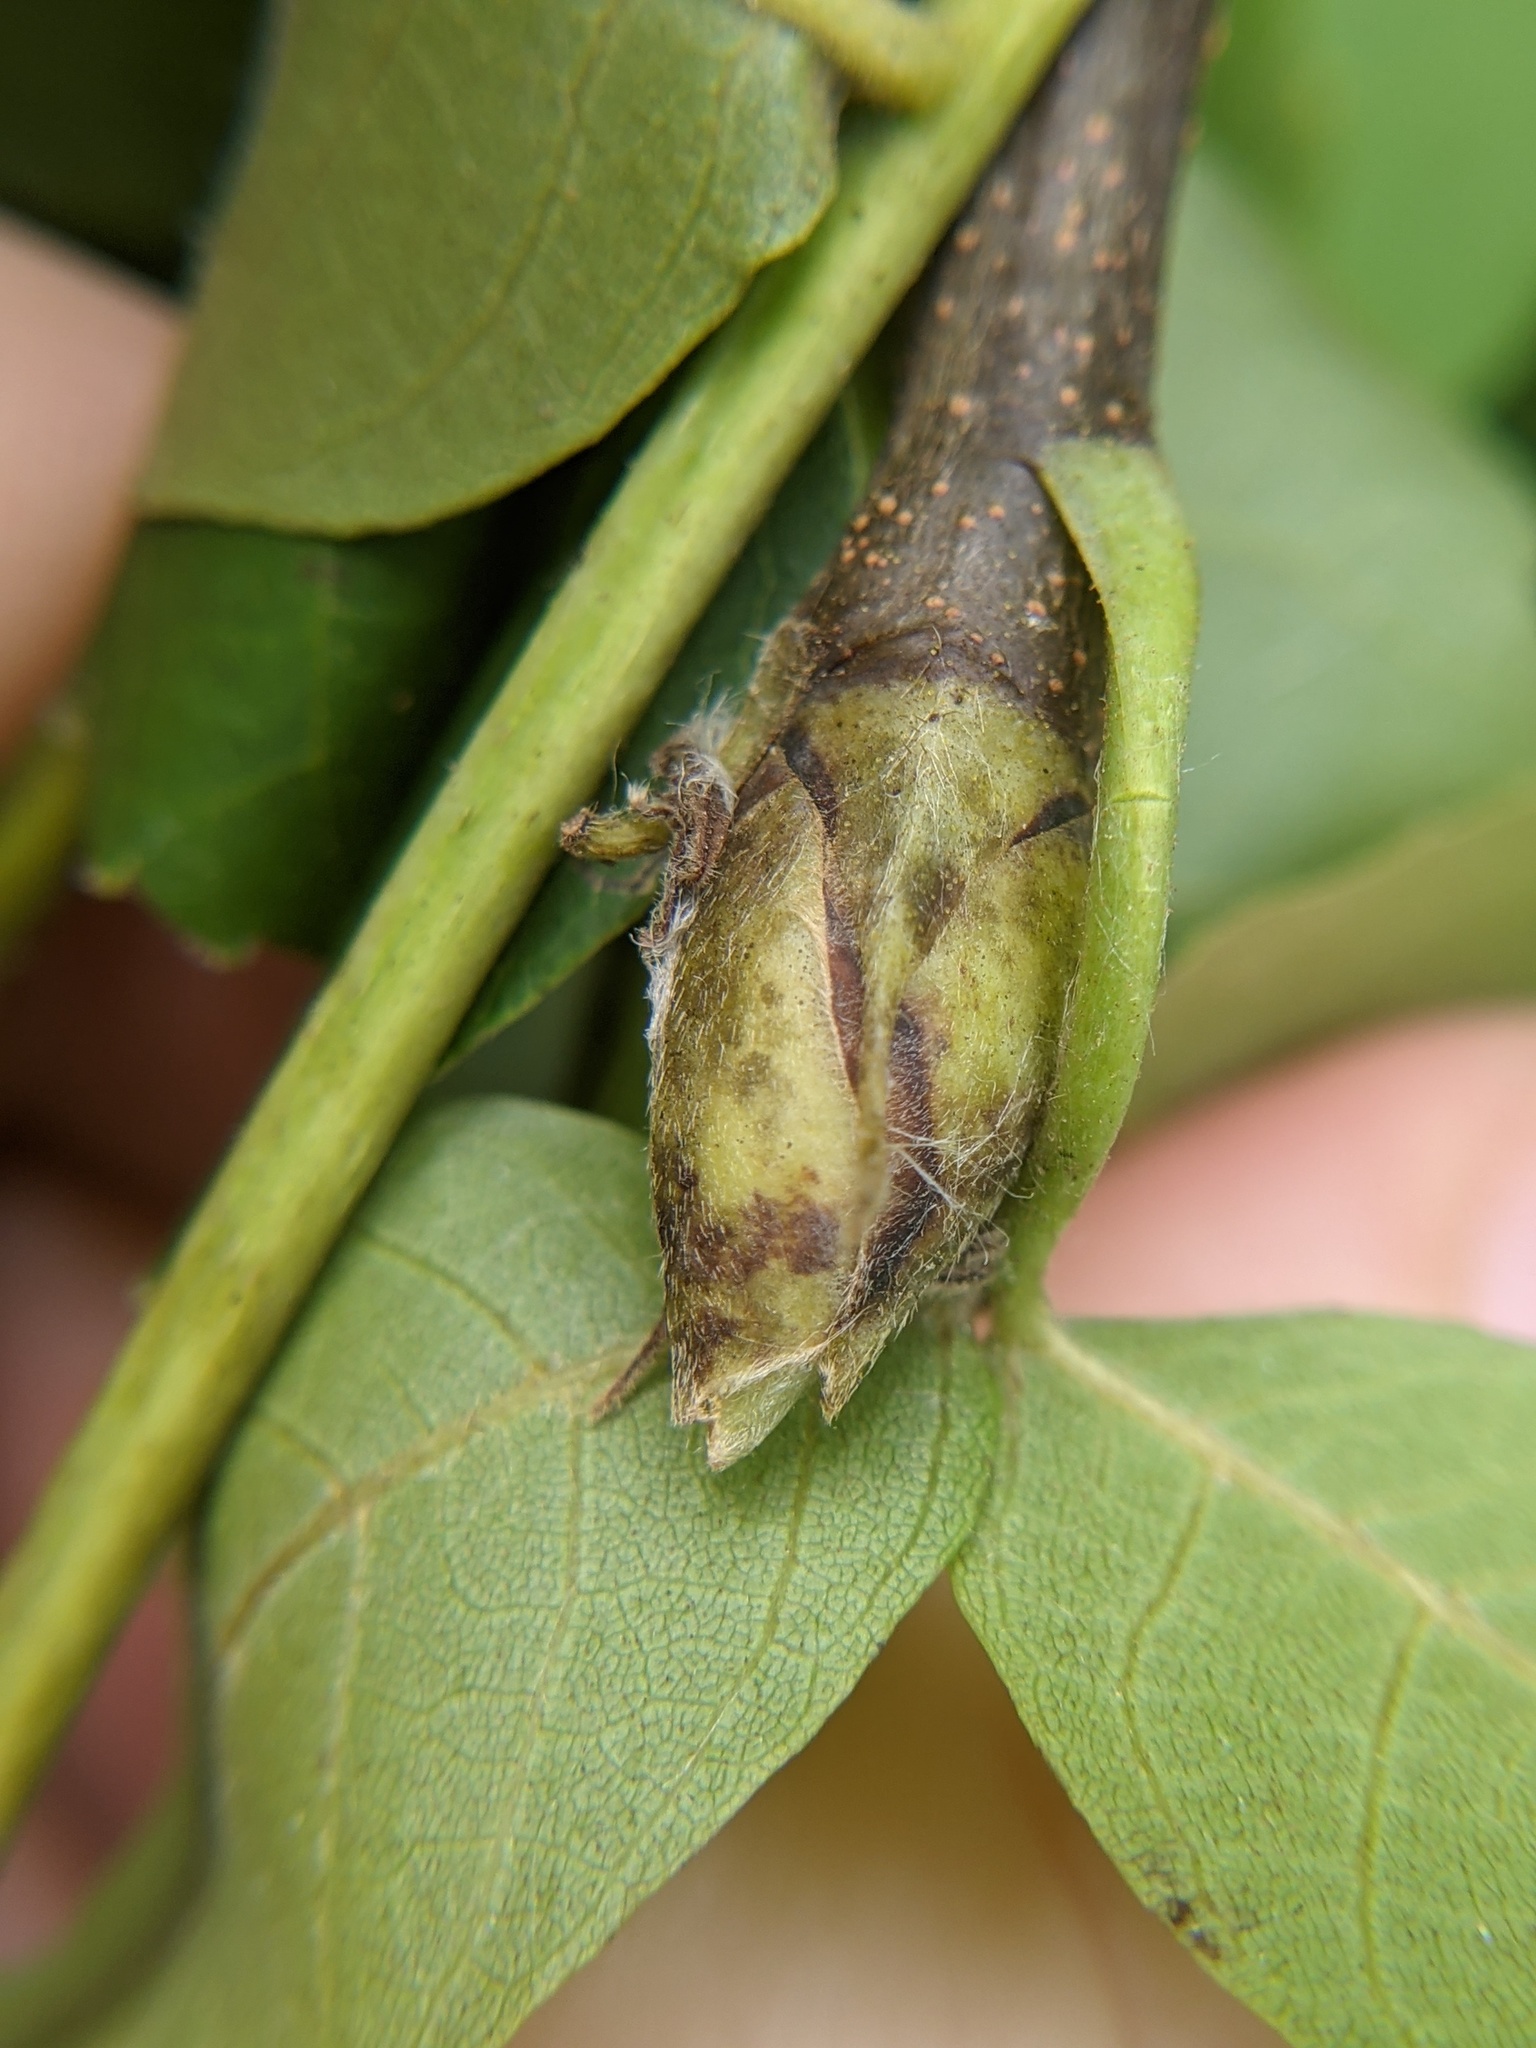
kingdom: Plantae
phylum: Tracheophyta
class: Magnoliopsida
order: Fagales
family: Juglandaceae
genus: Carya
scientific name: Carya ovata
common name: Shagbark hickory
